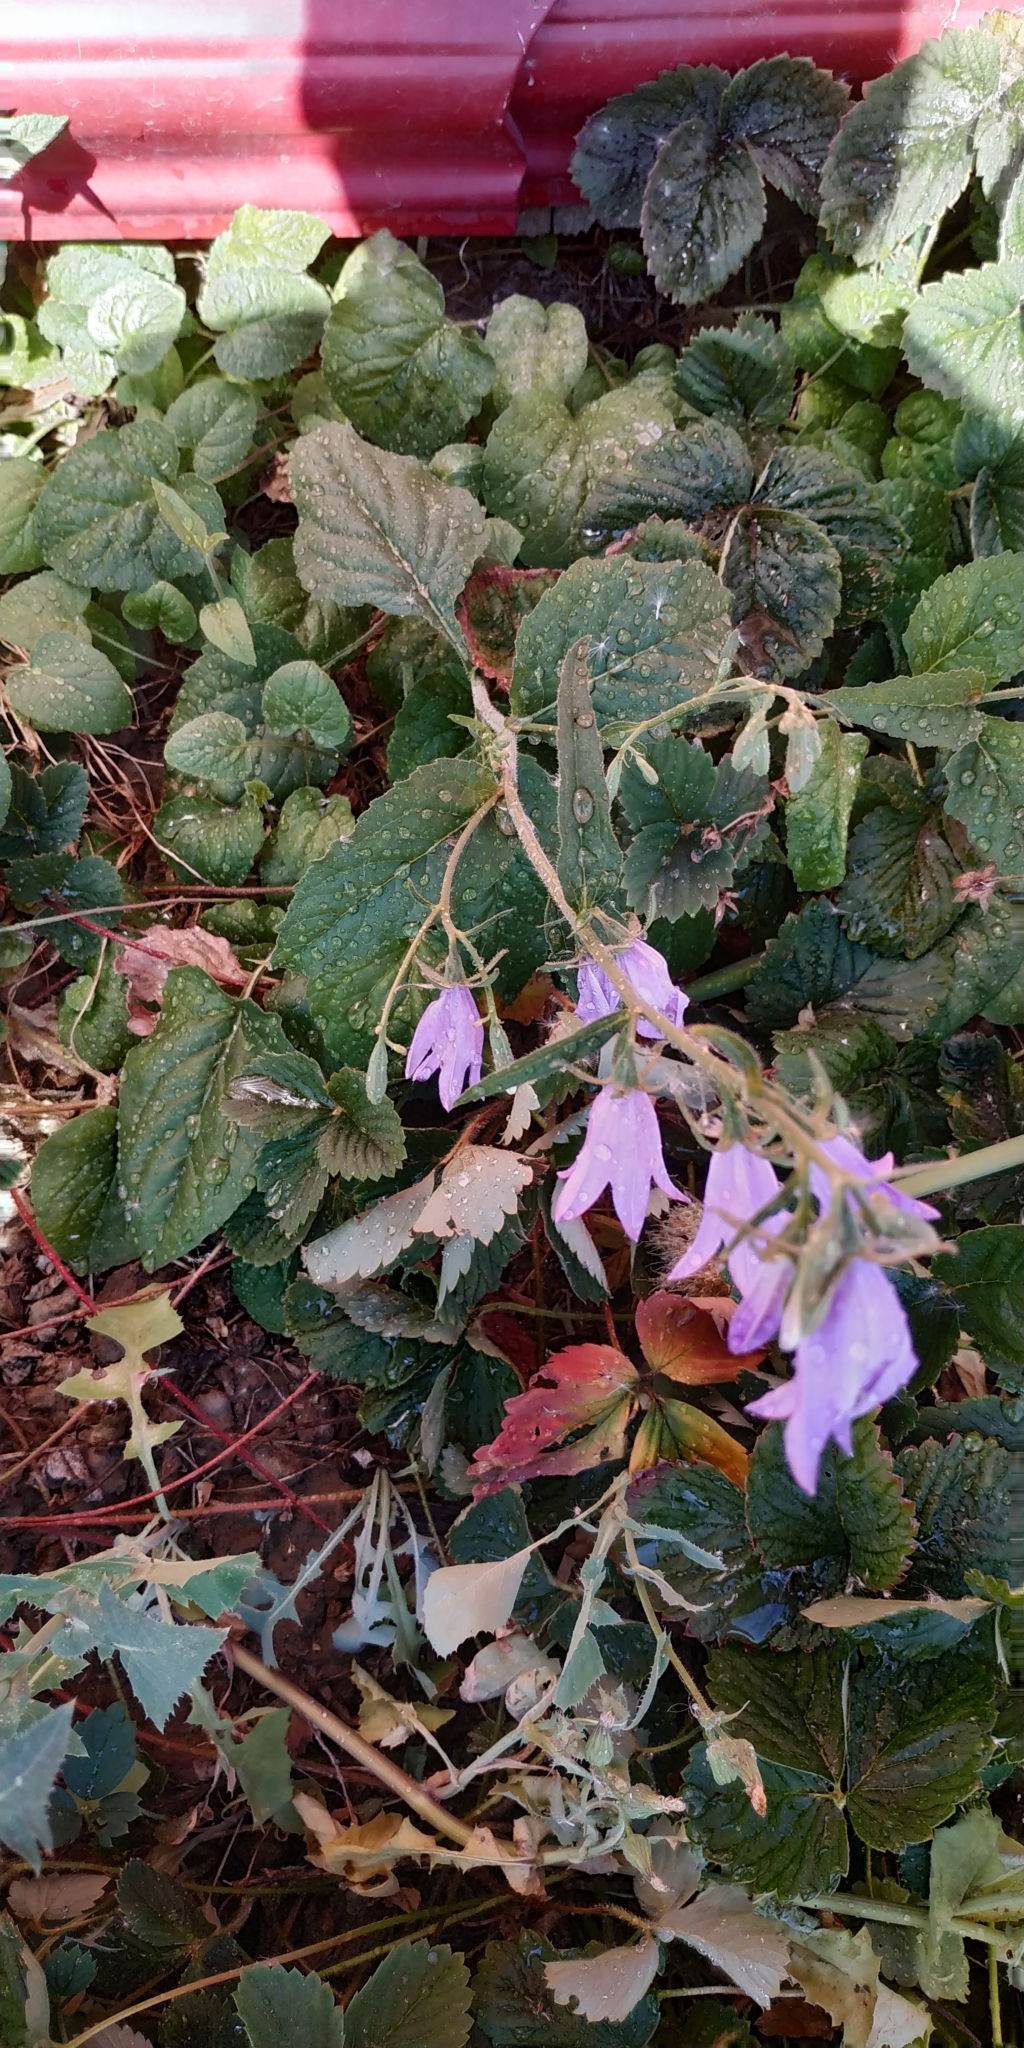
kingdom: Plantae
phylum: Tracheophyta
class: Magnoliopsida
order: Asterales
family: Campanulaceae
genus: Campanula
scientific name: Campanula rapunculoides
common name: Creeping bellflower
